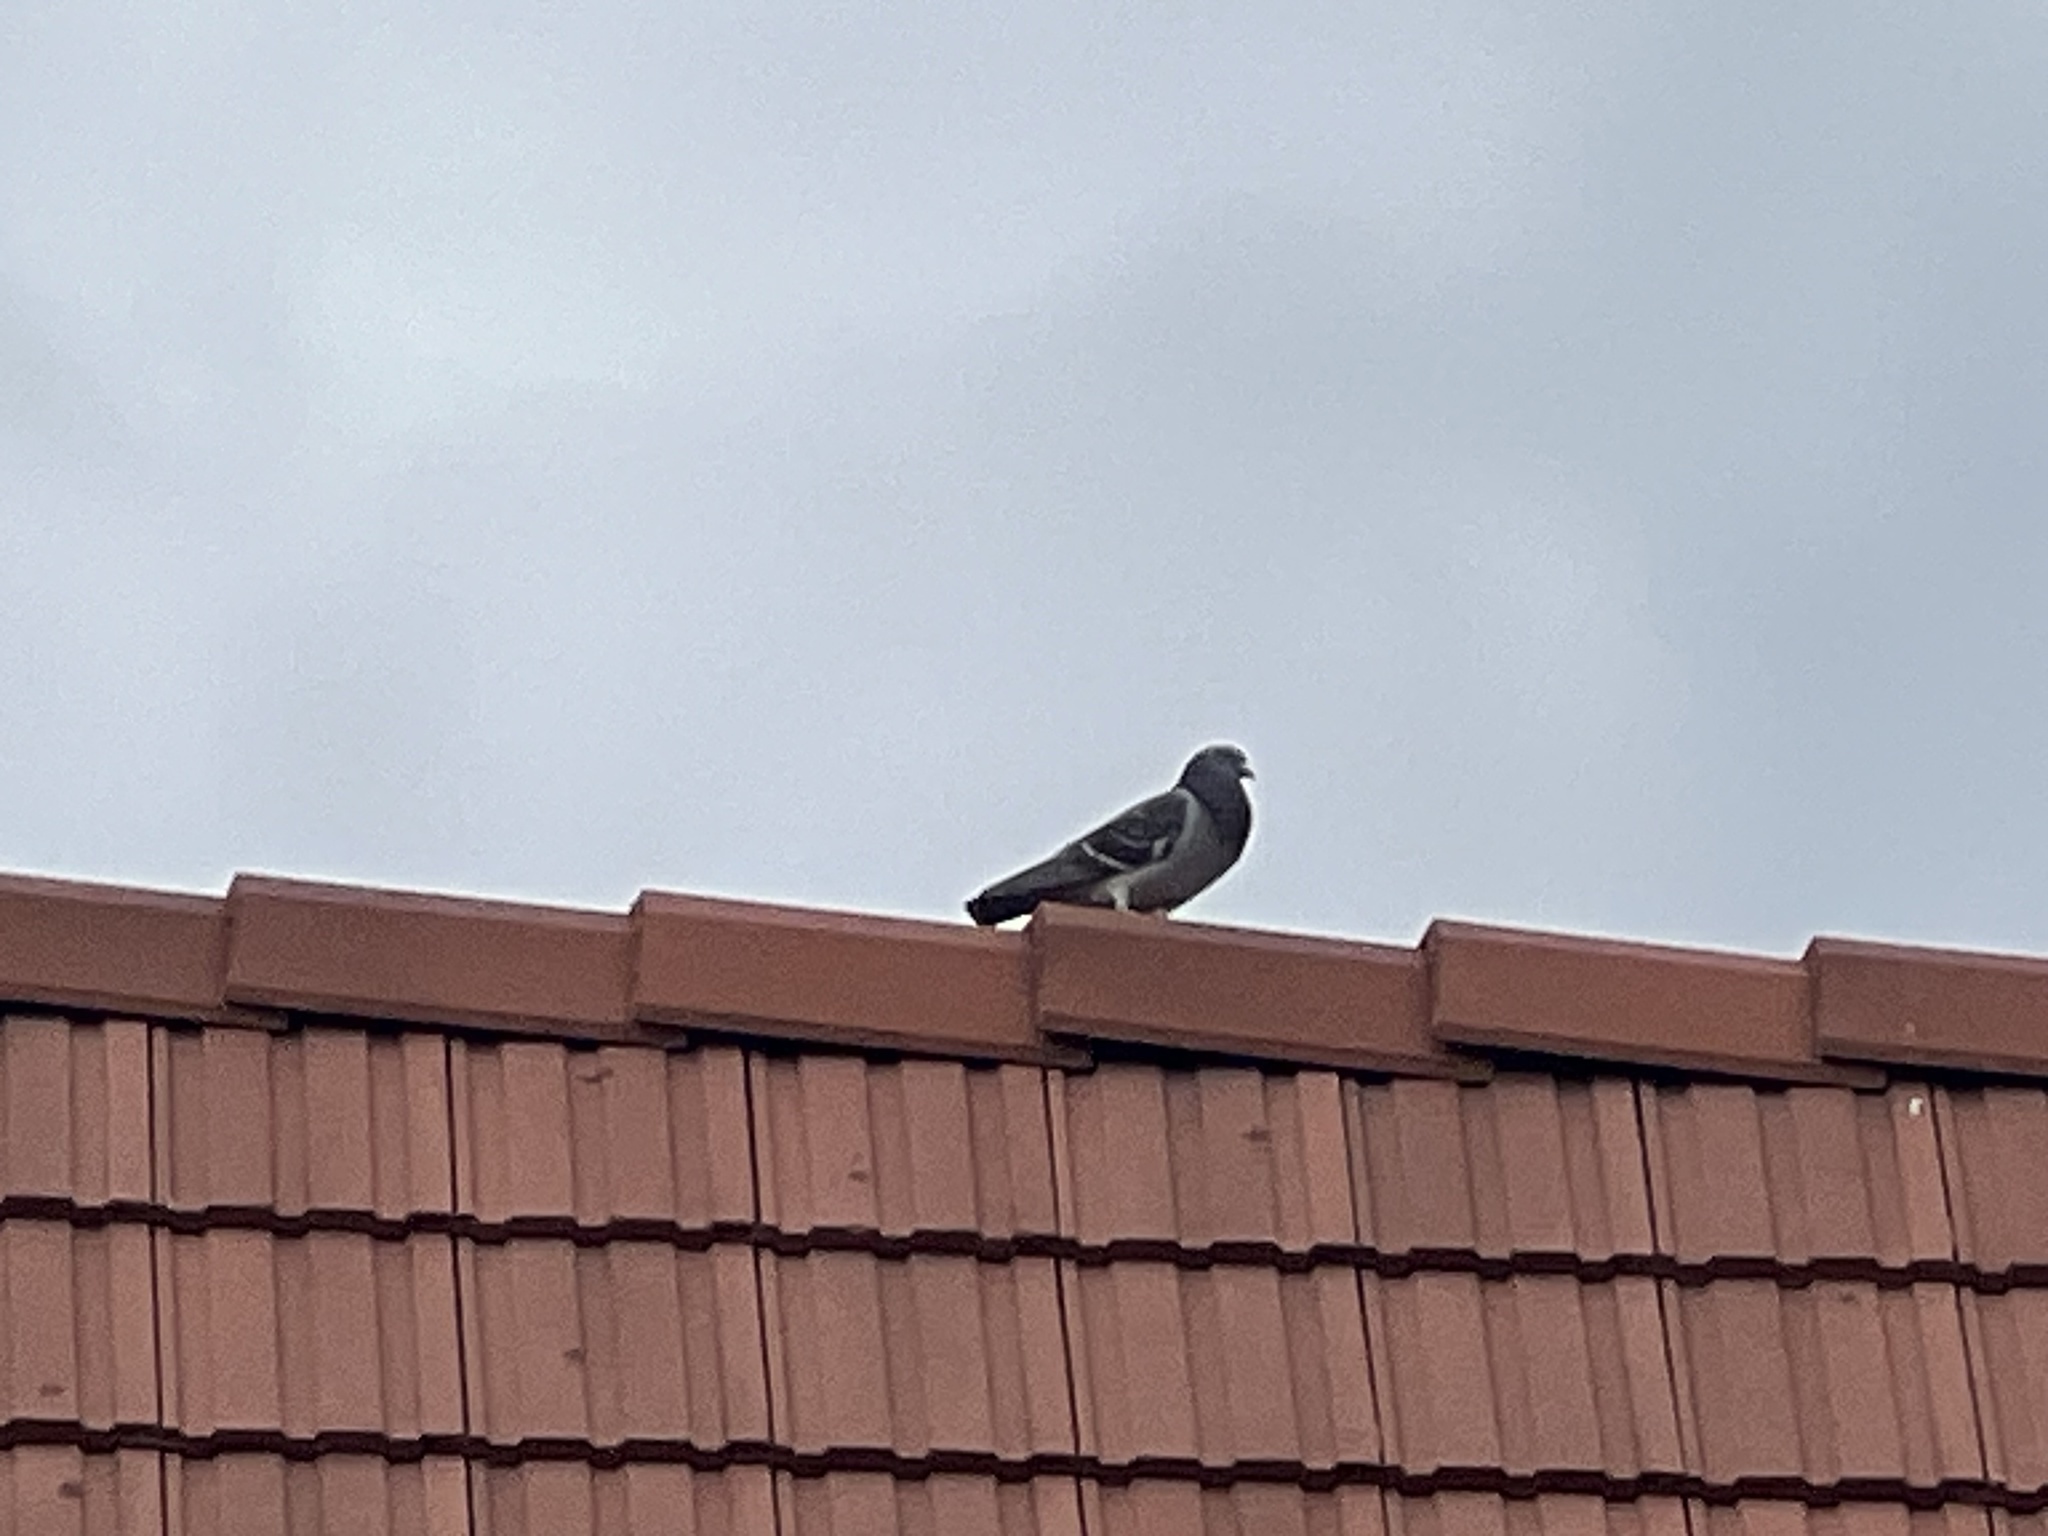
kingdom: Animalia
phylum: Chordata
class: Aves
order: Columbiformes
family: Columbidae
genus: Columba
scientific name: Columba livia
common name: Rock pigeon
